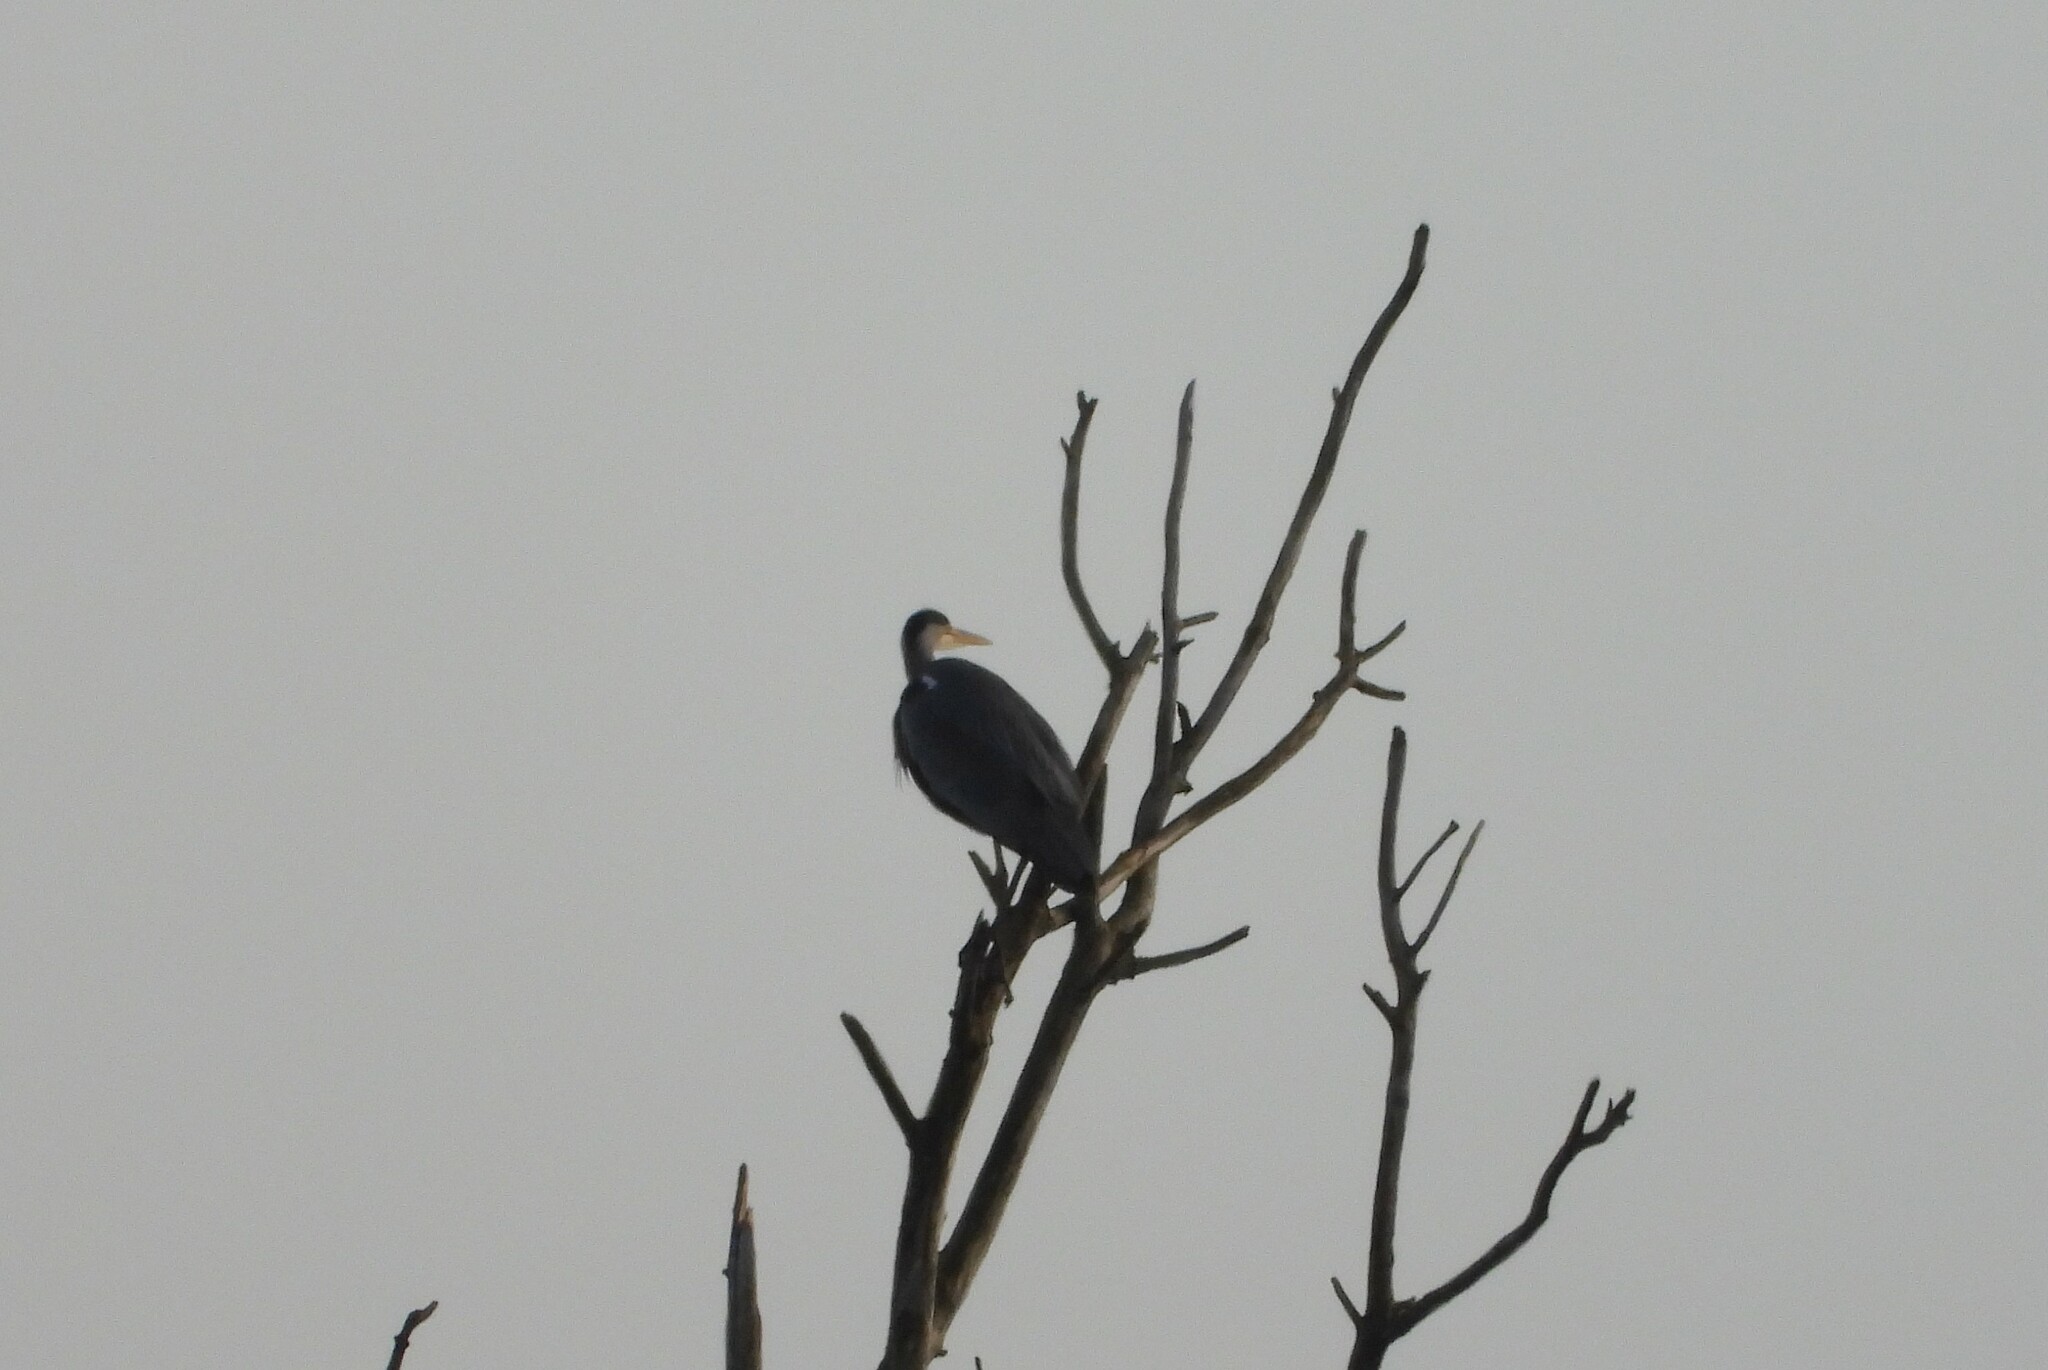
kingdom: Animalia
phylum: Chordata
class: Aves
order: Pelecaniformes
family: Ardeidae
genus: Ardea
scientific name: Ardea cinerea
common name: Grey heron
